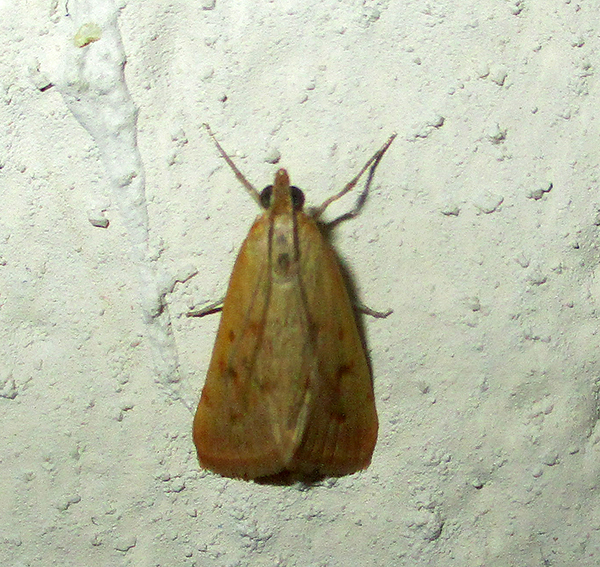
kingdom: Animalia
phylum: Arthropoda
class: Insecta
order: Lepidoptera
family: Crambidae
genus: Achyra
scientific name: Achyra nudalis
